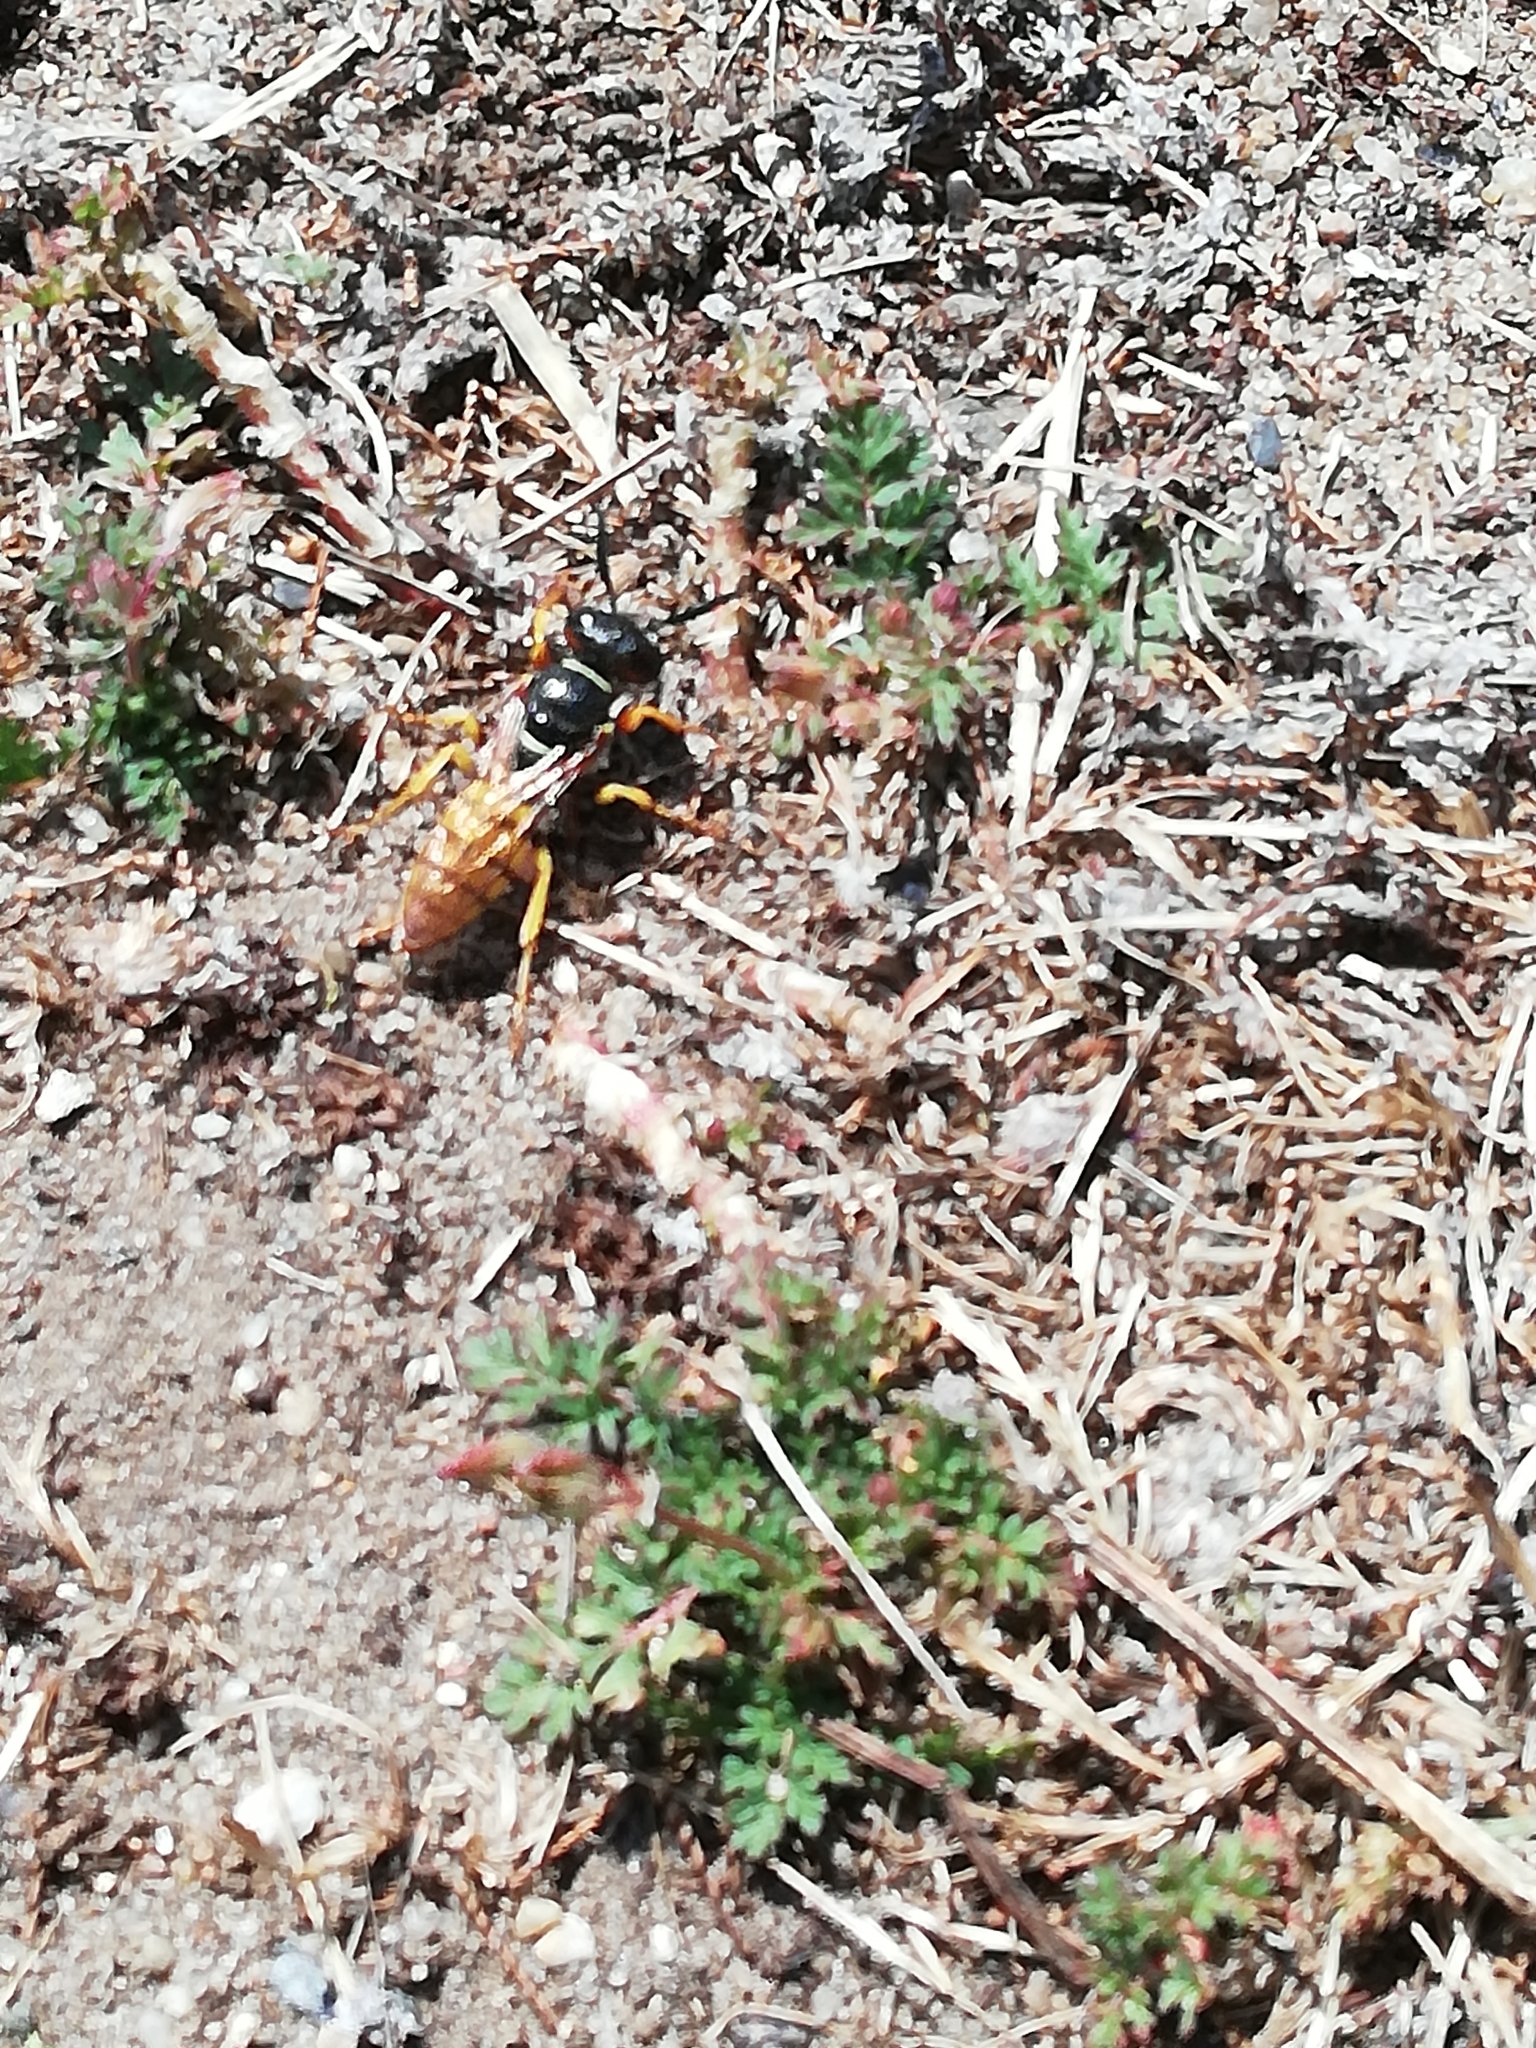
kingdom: Animalia
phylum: Arthropoda
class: Insecta
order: Hymenoptera
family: Crabronidae
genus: Philanthus
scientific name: Philanthus triangulum
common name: Bee wolf
